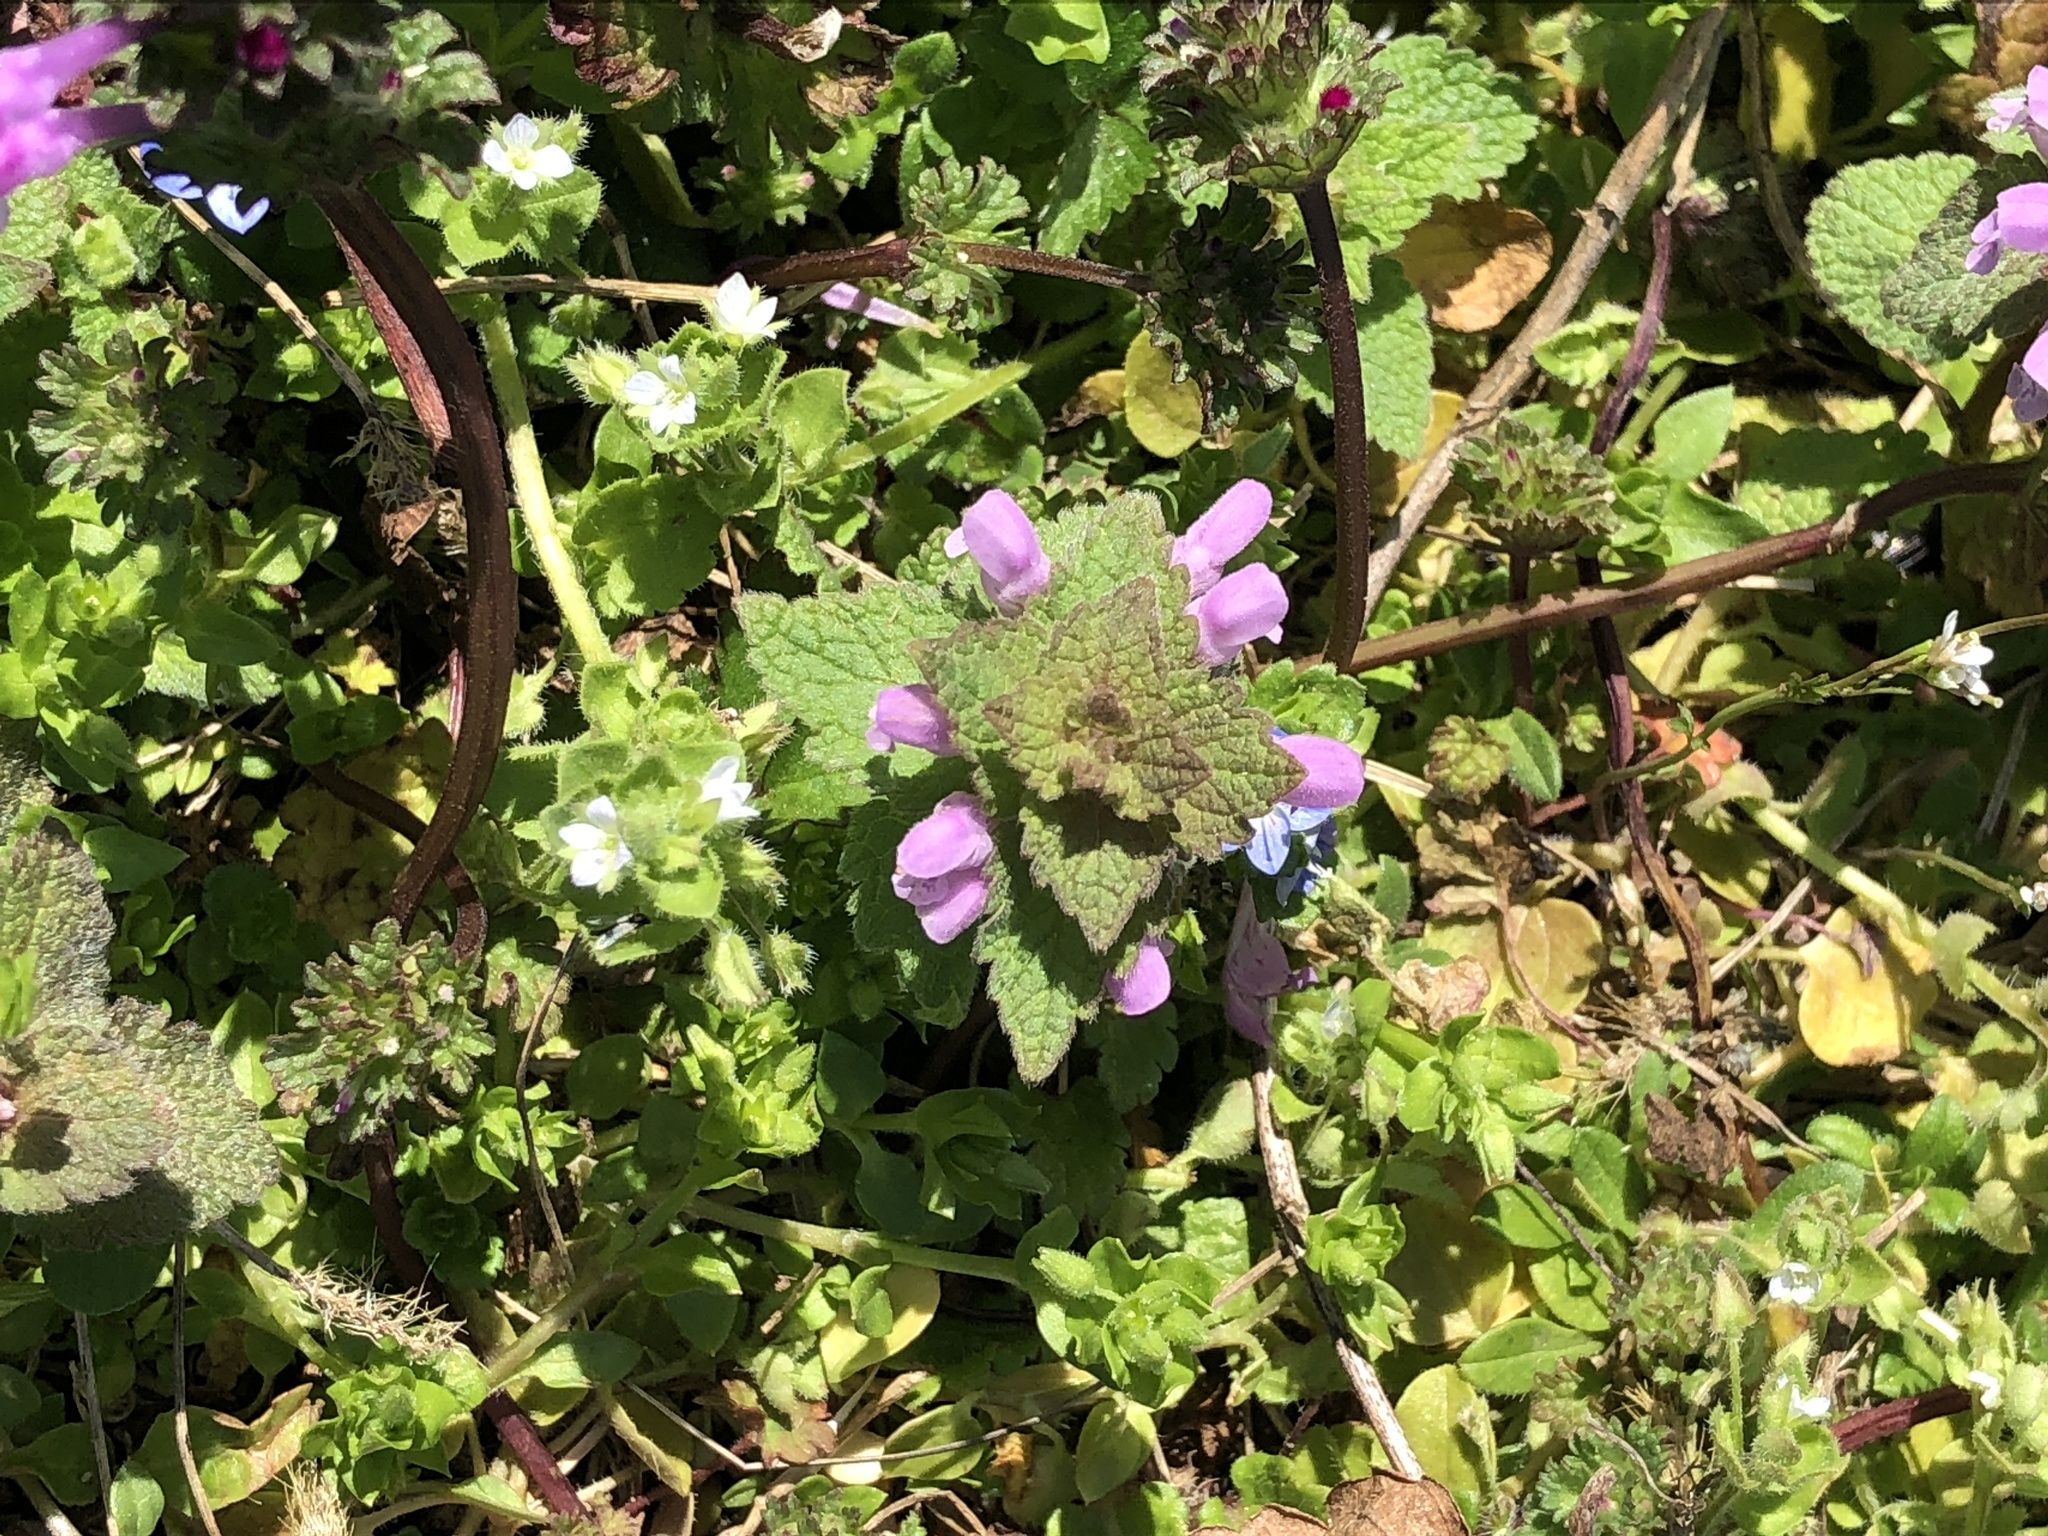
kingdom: Plantae
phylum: Tracheophyta
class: Magnoliopsida
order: Lamiales
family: Lamiaceae
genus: Lamium
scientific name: Lamium purpureum
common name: Red dead-nettle
